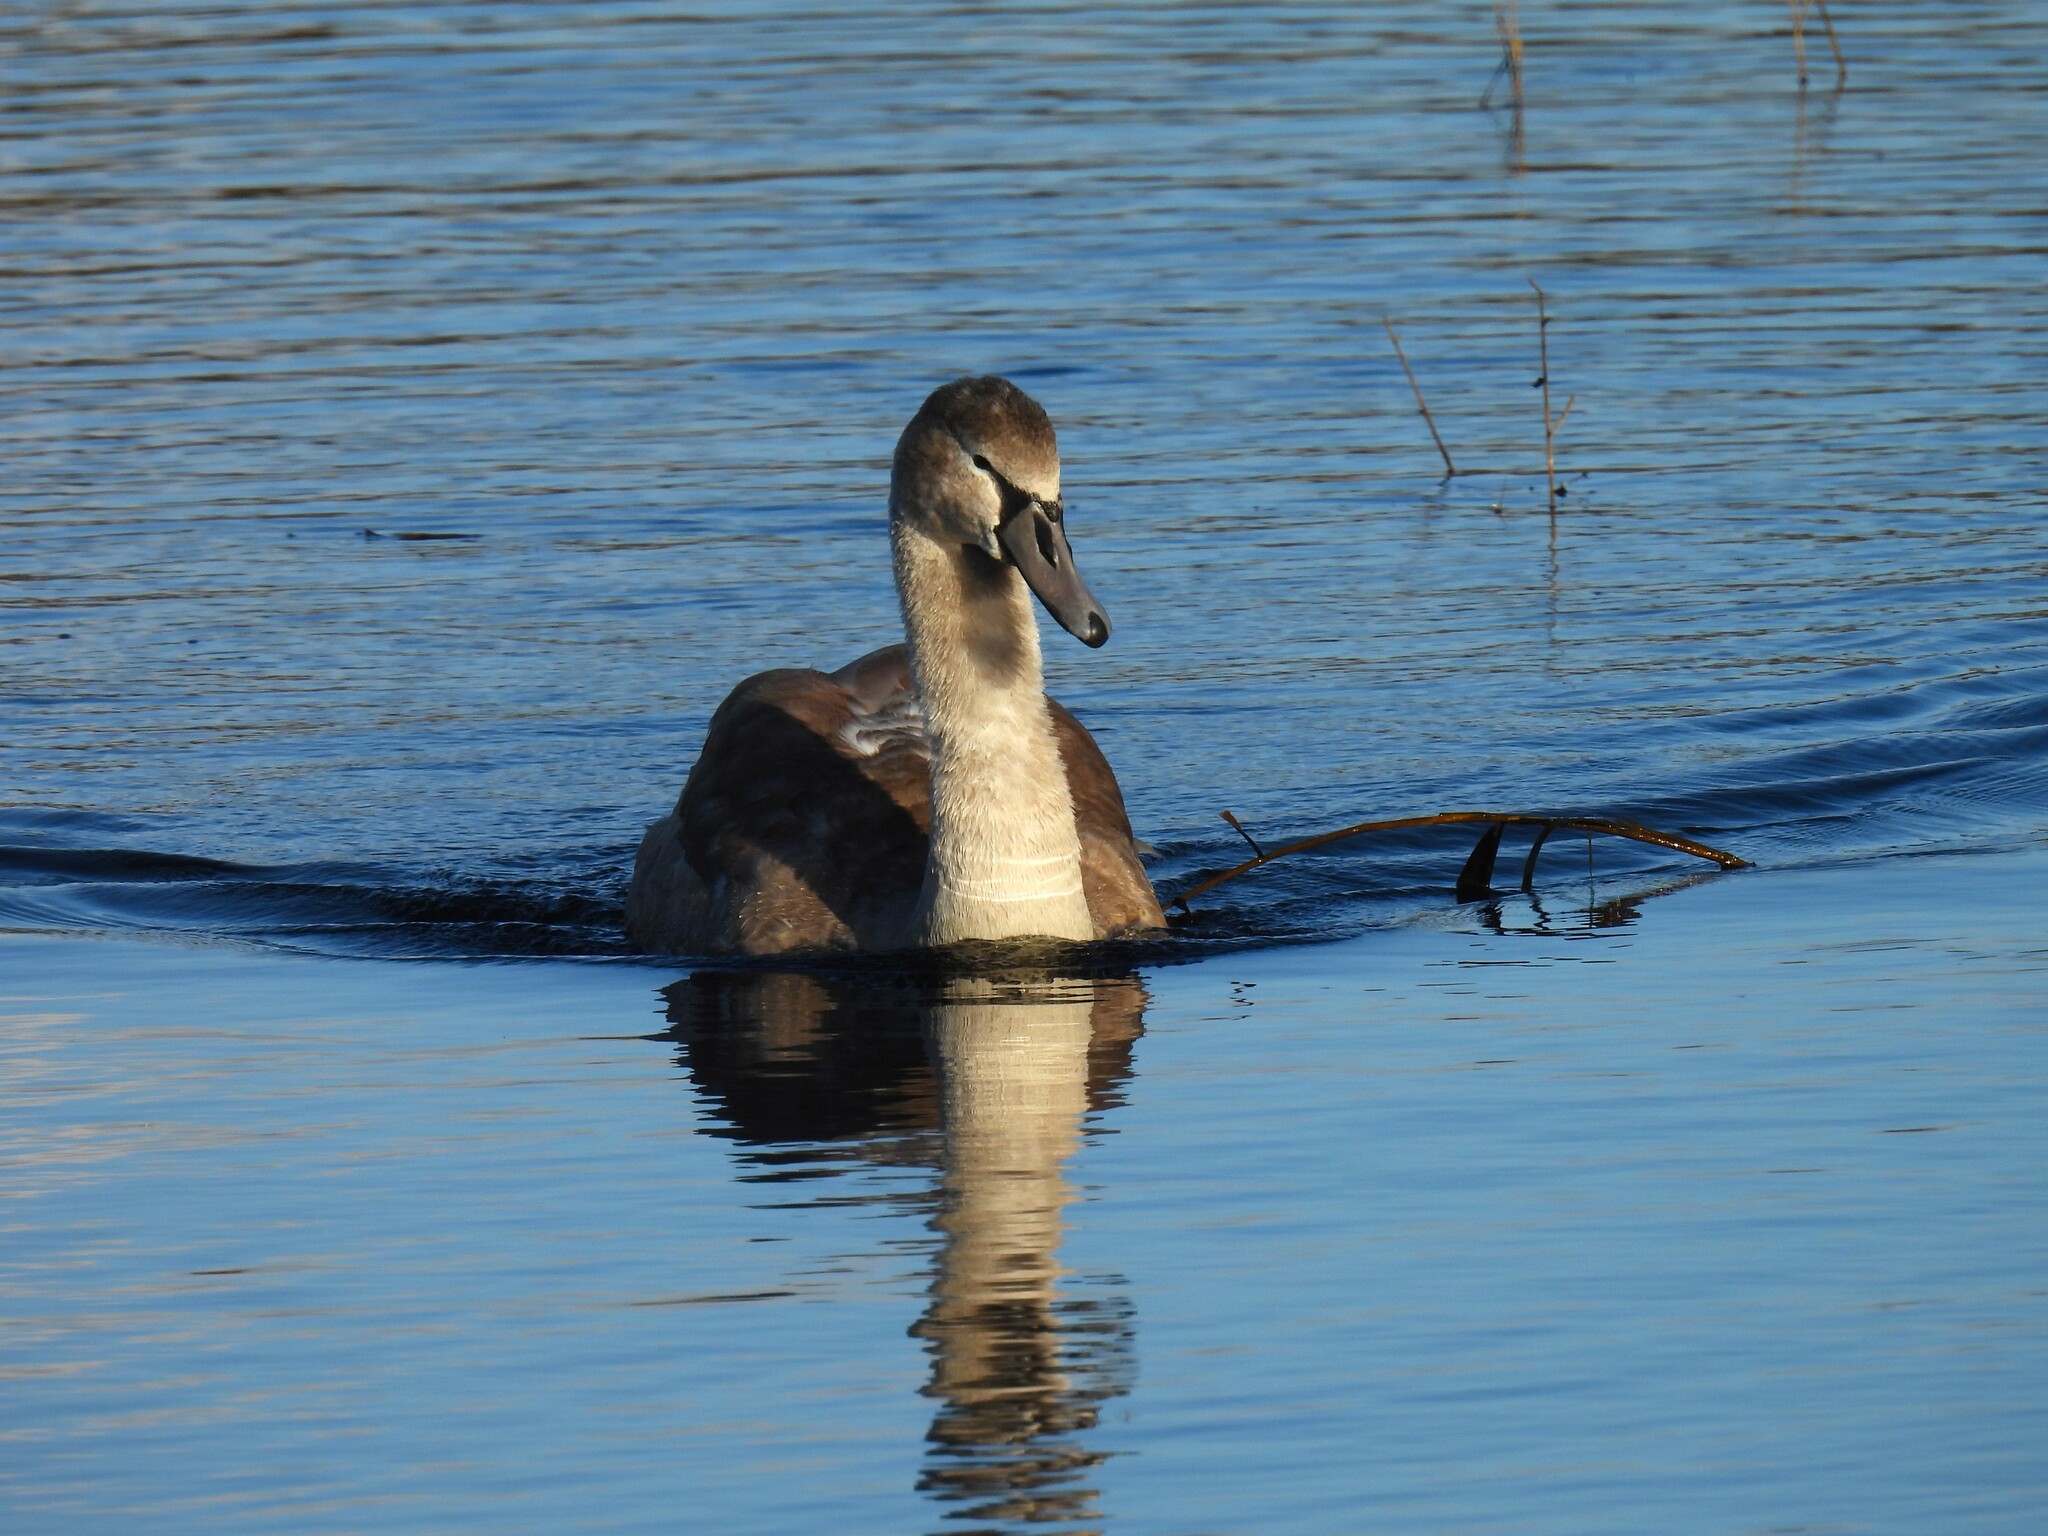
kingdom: Animalia
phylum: Chordata
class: Aves
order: Anseriformes
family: Anatidae
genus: Cygnus
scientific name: Cygnus olor
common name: Mute swan
